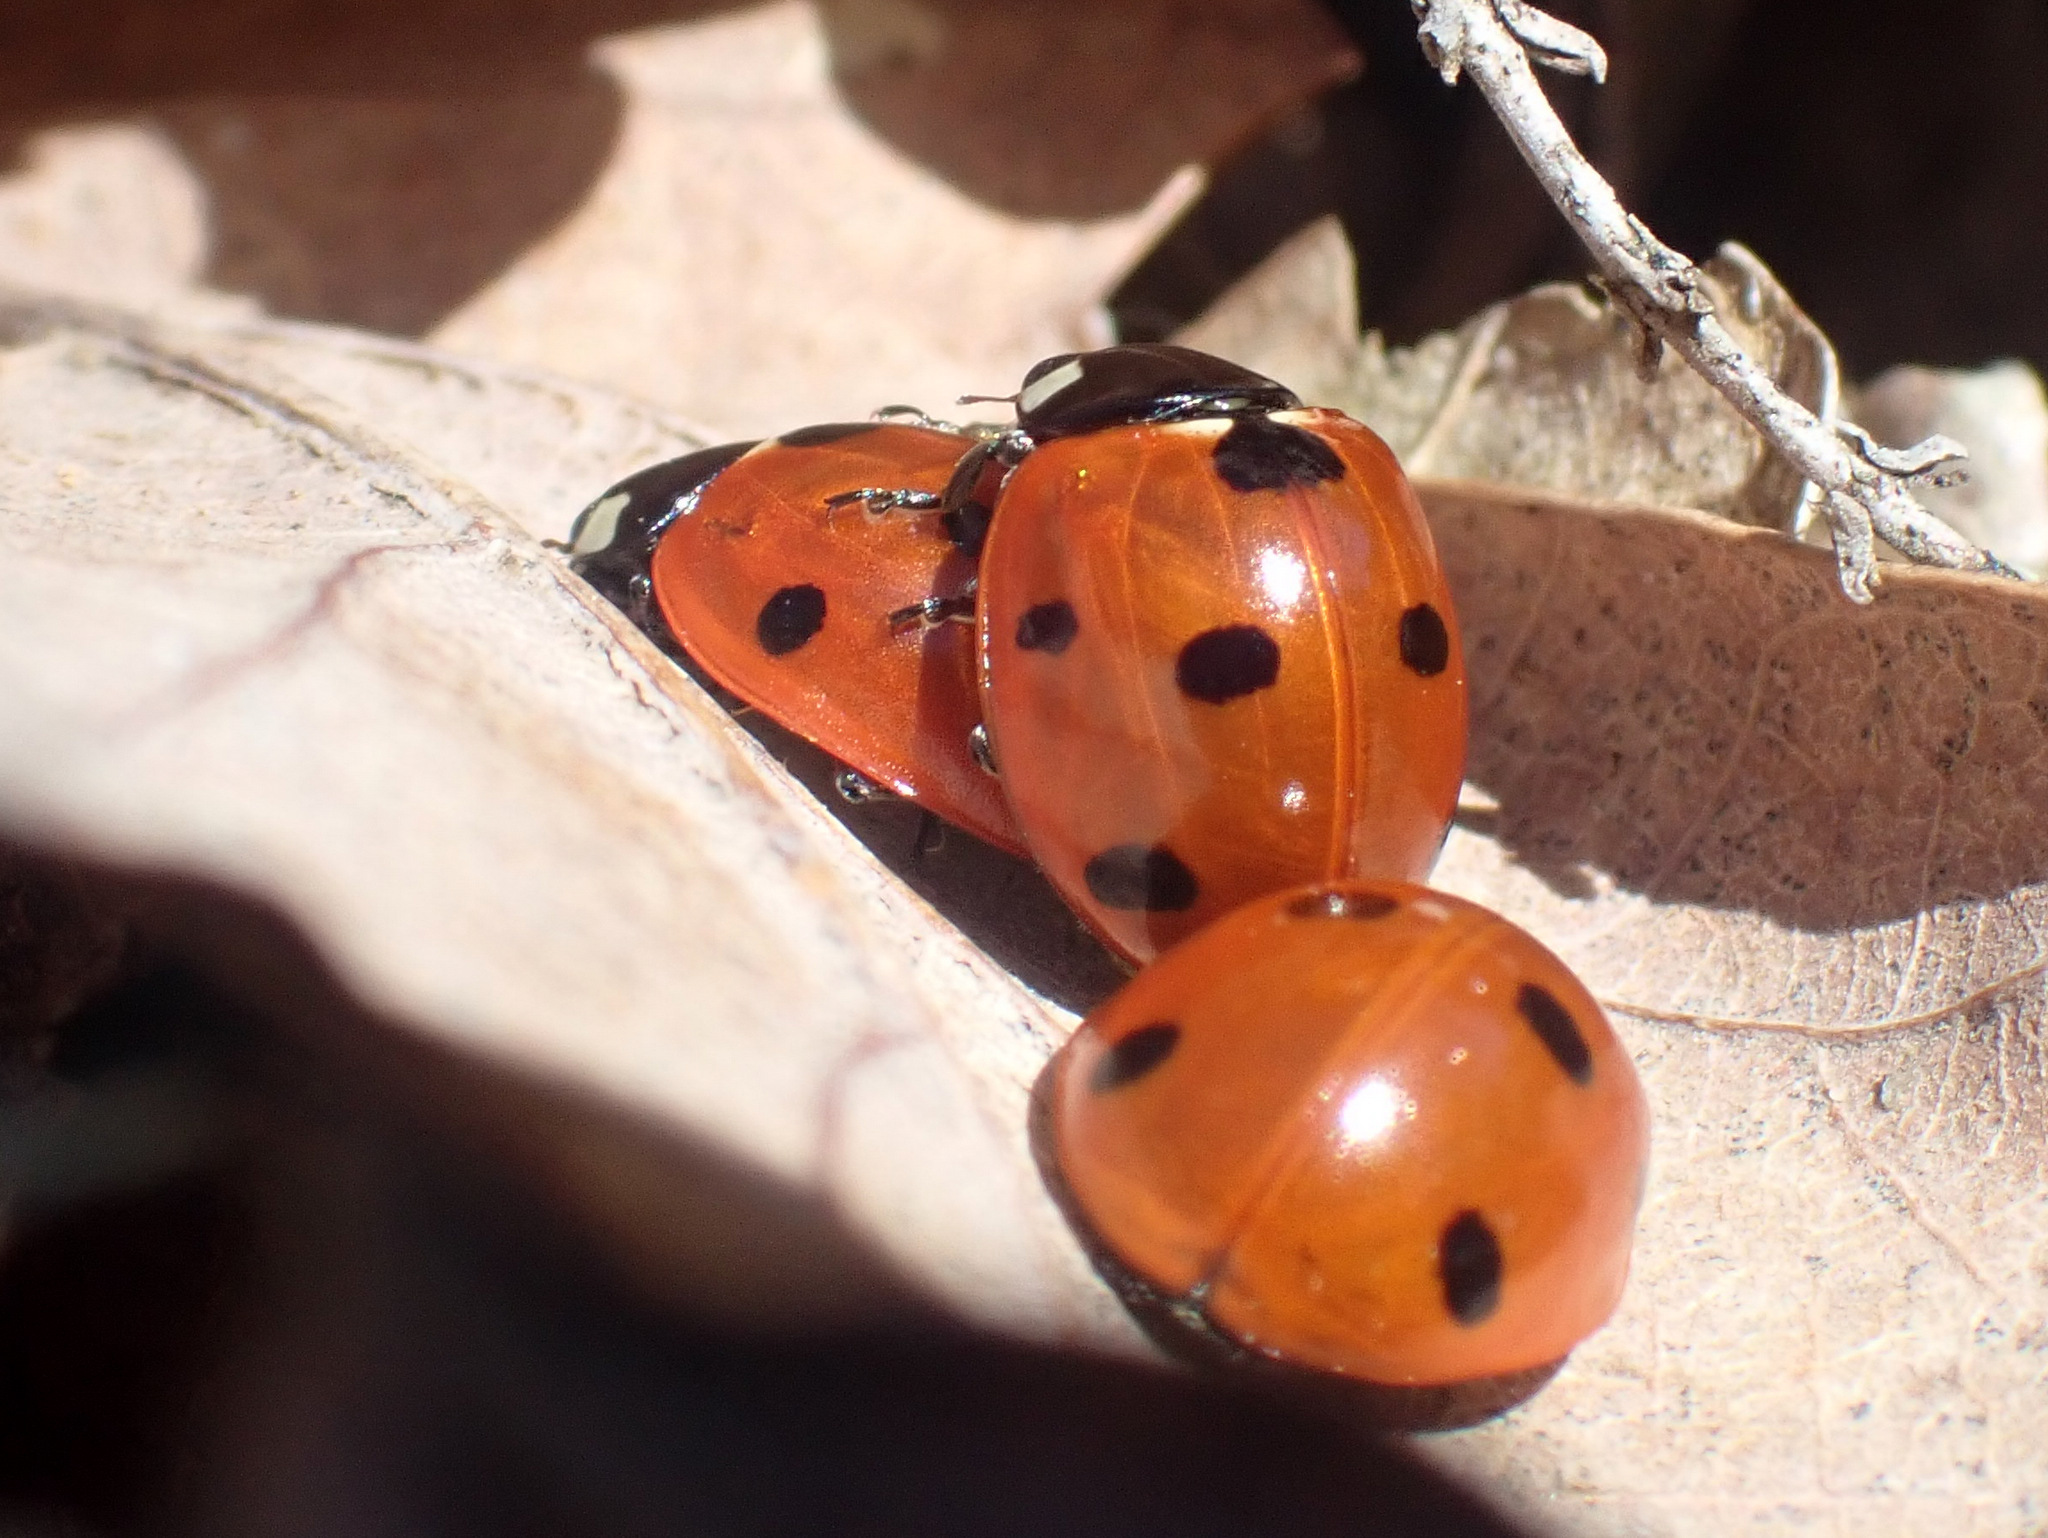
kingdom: Animalia
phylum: Arthropoda
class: Insecta
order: Coleoptera
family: Coccinellidae
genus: Coccinella
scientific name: Coccinella septempunctata
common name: Sevenspotted lady beetle
